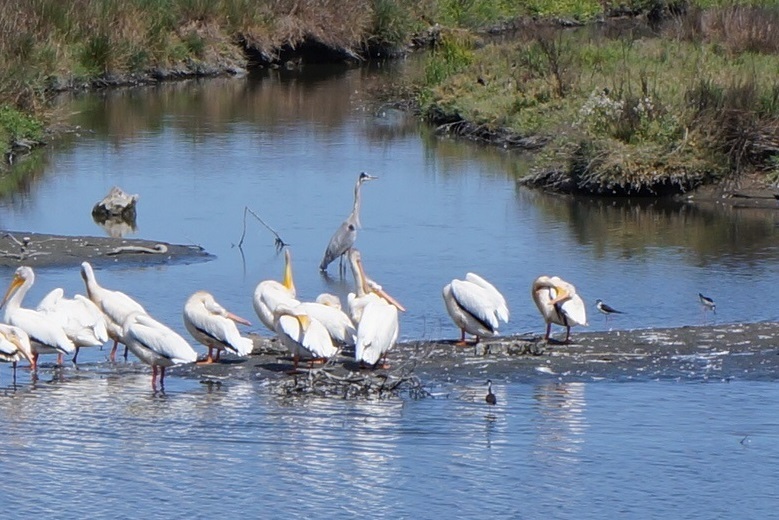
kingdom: Animalia
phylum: Chordata
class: Aves
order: Pelecaniformes
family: Ardeidae
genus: Ardea
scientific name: Ardea herodias
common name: Great blue heron
